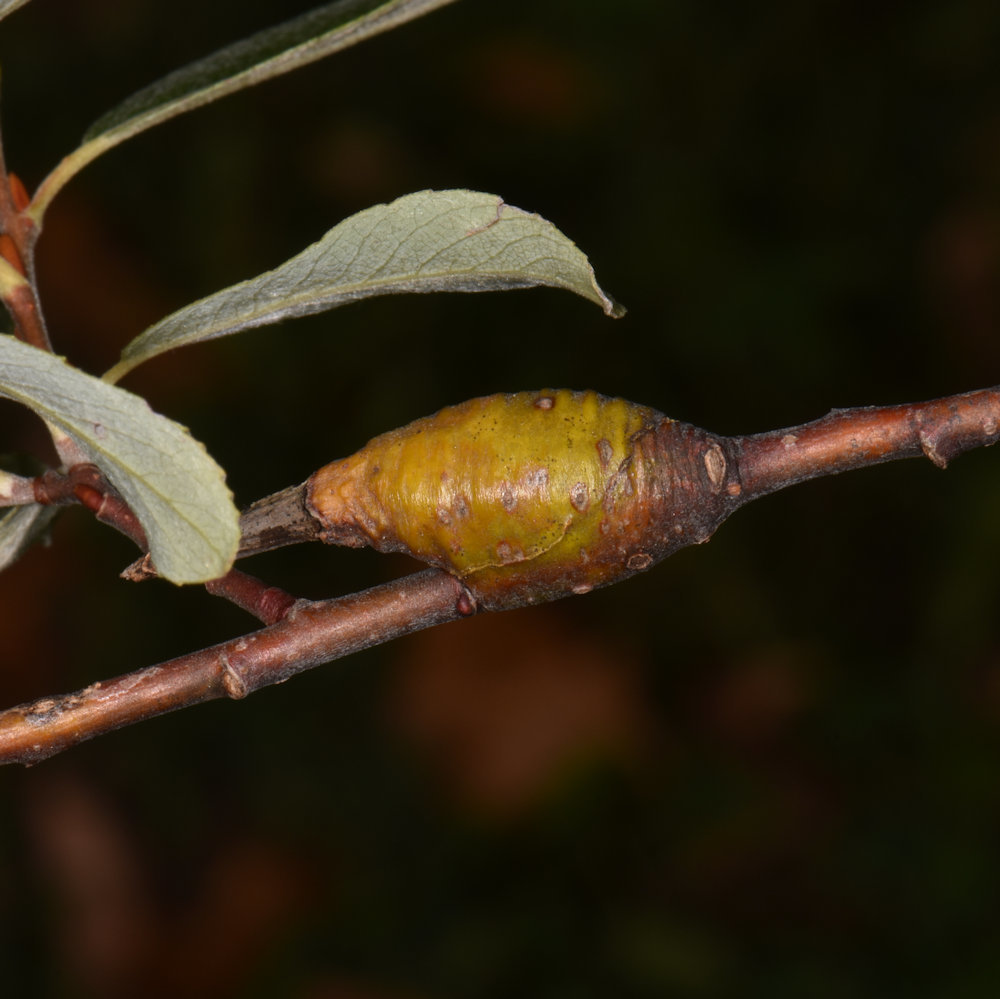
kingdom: Animalia
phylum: Arthropoda
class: Insecta
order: Diptera
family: Cecidomyiidae
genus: Thecodiplosis
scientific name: Thecodiplosis pinirigidae
